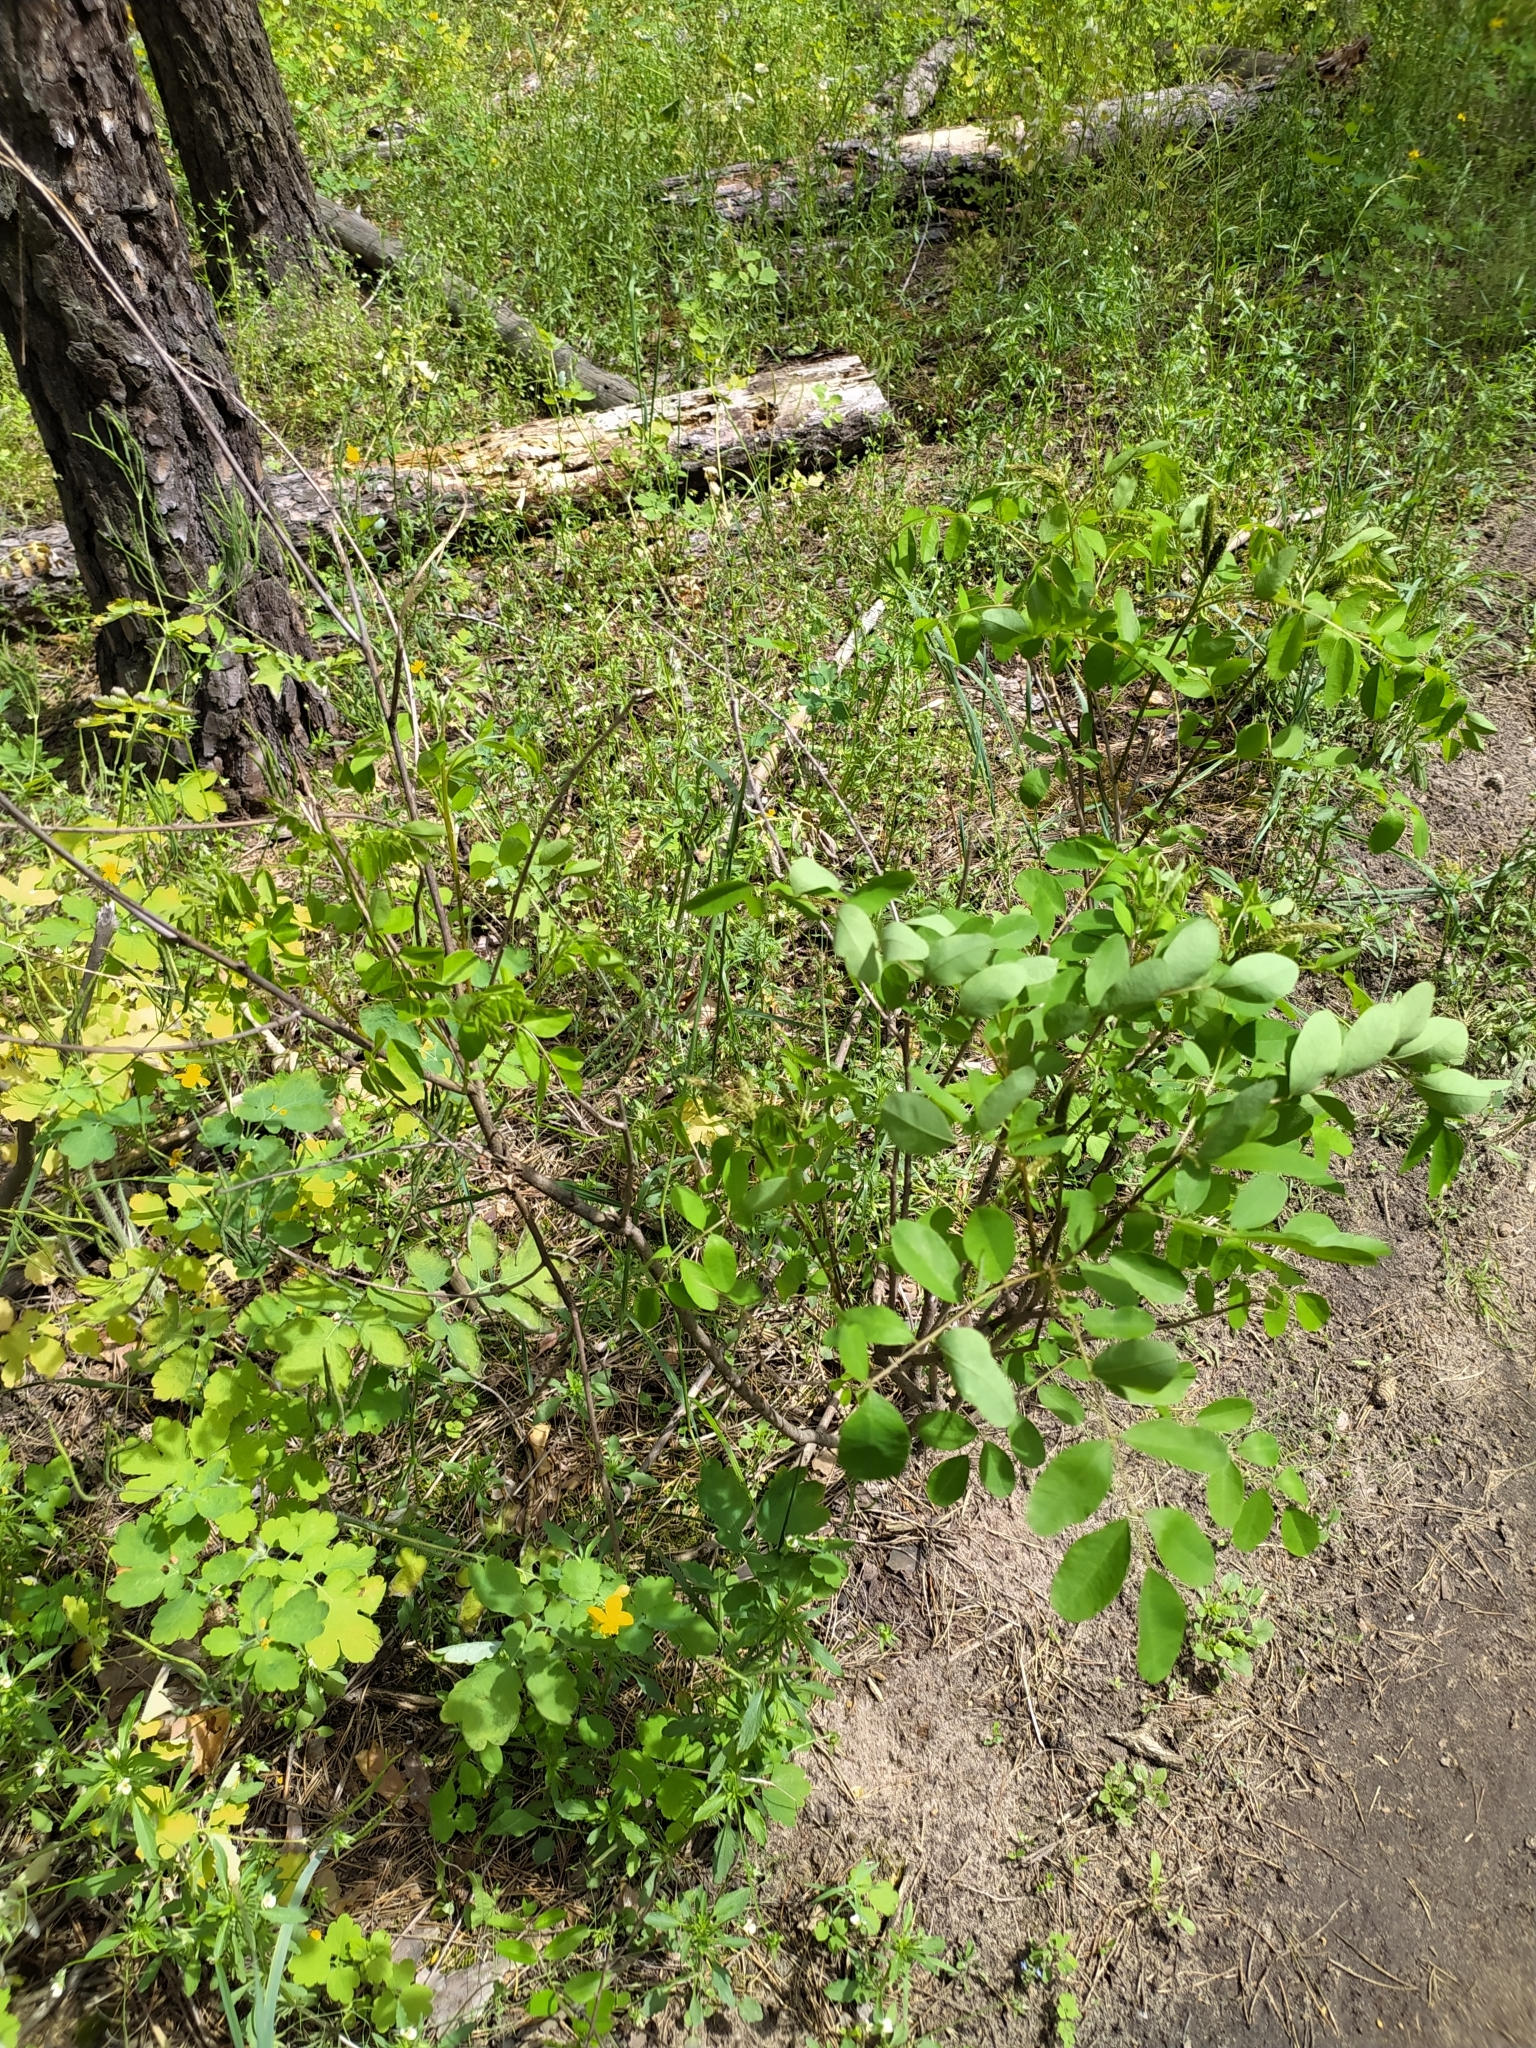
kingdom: Plantae
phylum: Tracheophyta
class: Magnoliopsida
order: Fabales
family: Fabaceae
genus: Robinia
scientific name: Robinia pseudoacacia
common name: Black locust
